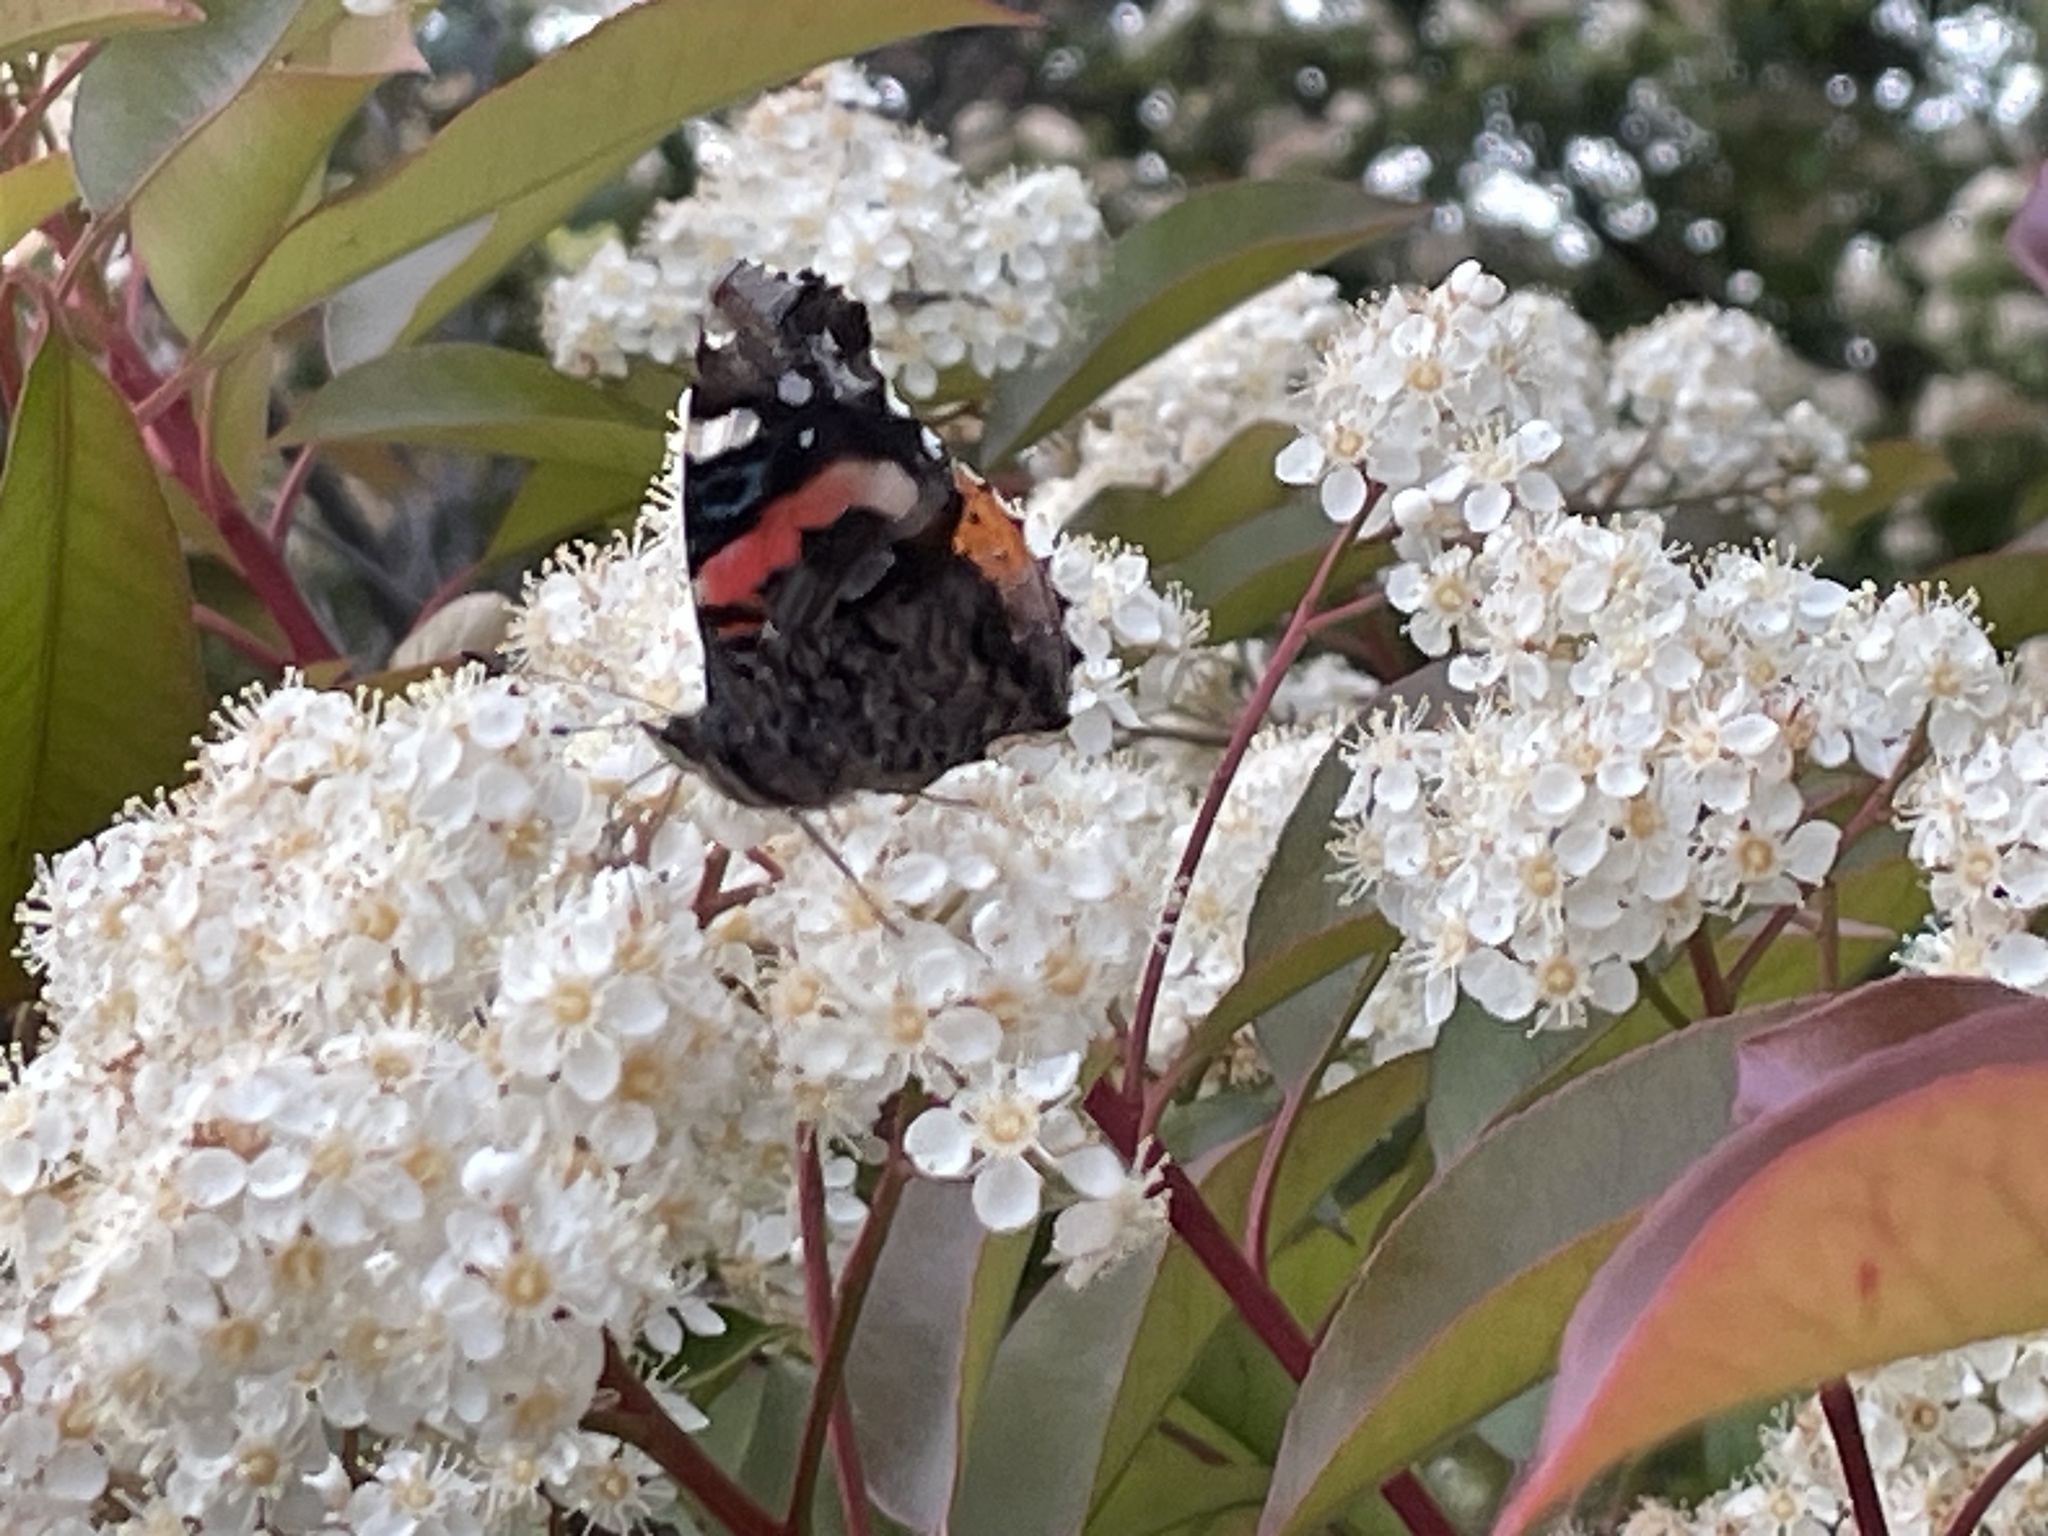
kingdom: Animalia
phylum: Arthropoda
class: Insecta
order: Lepidoptera
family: Nymphalidae
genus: Vanessa
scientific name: Vanessa atalanta
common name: Red admiral
